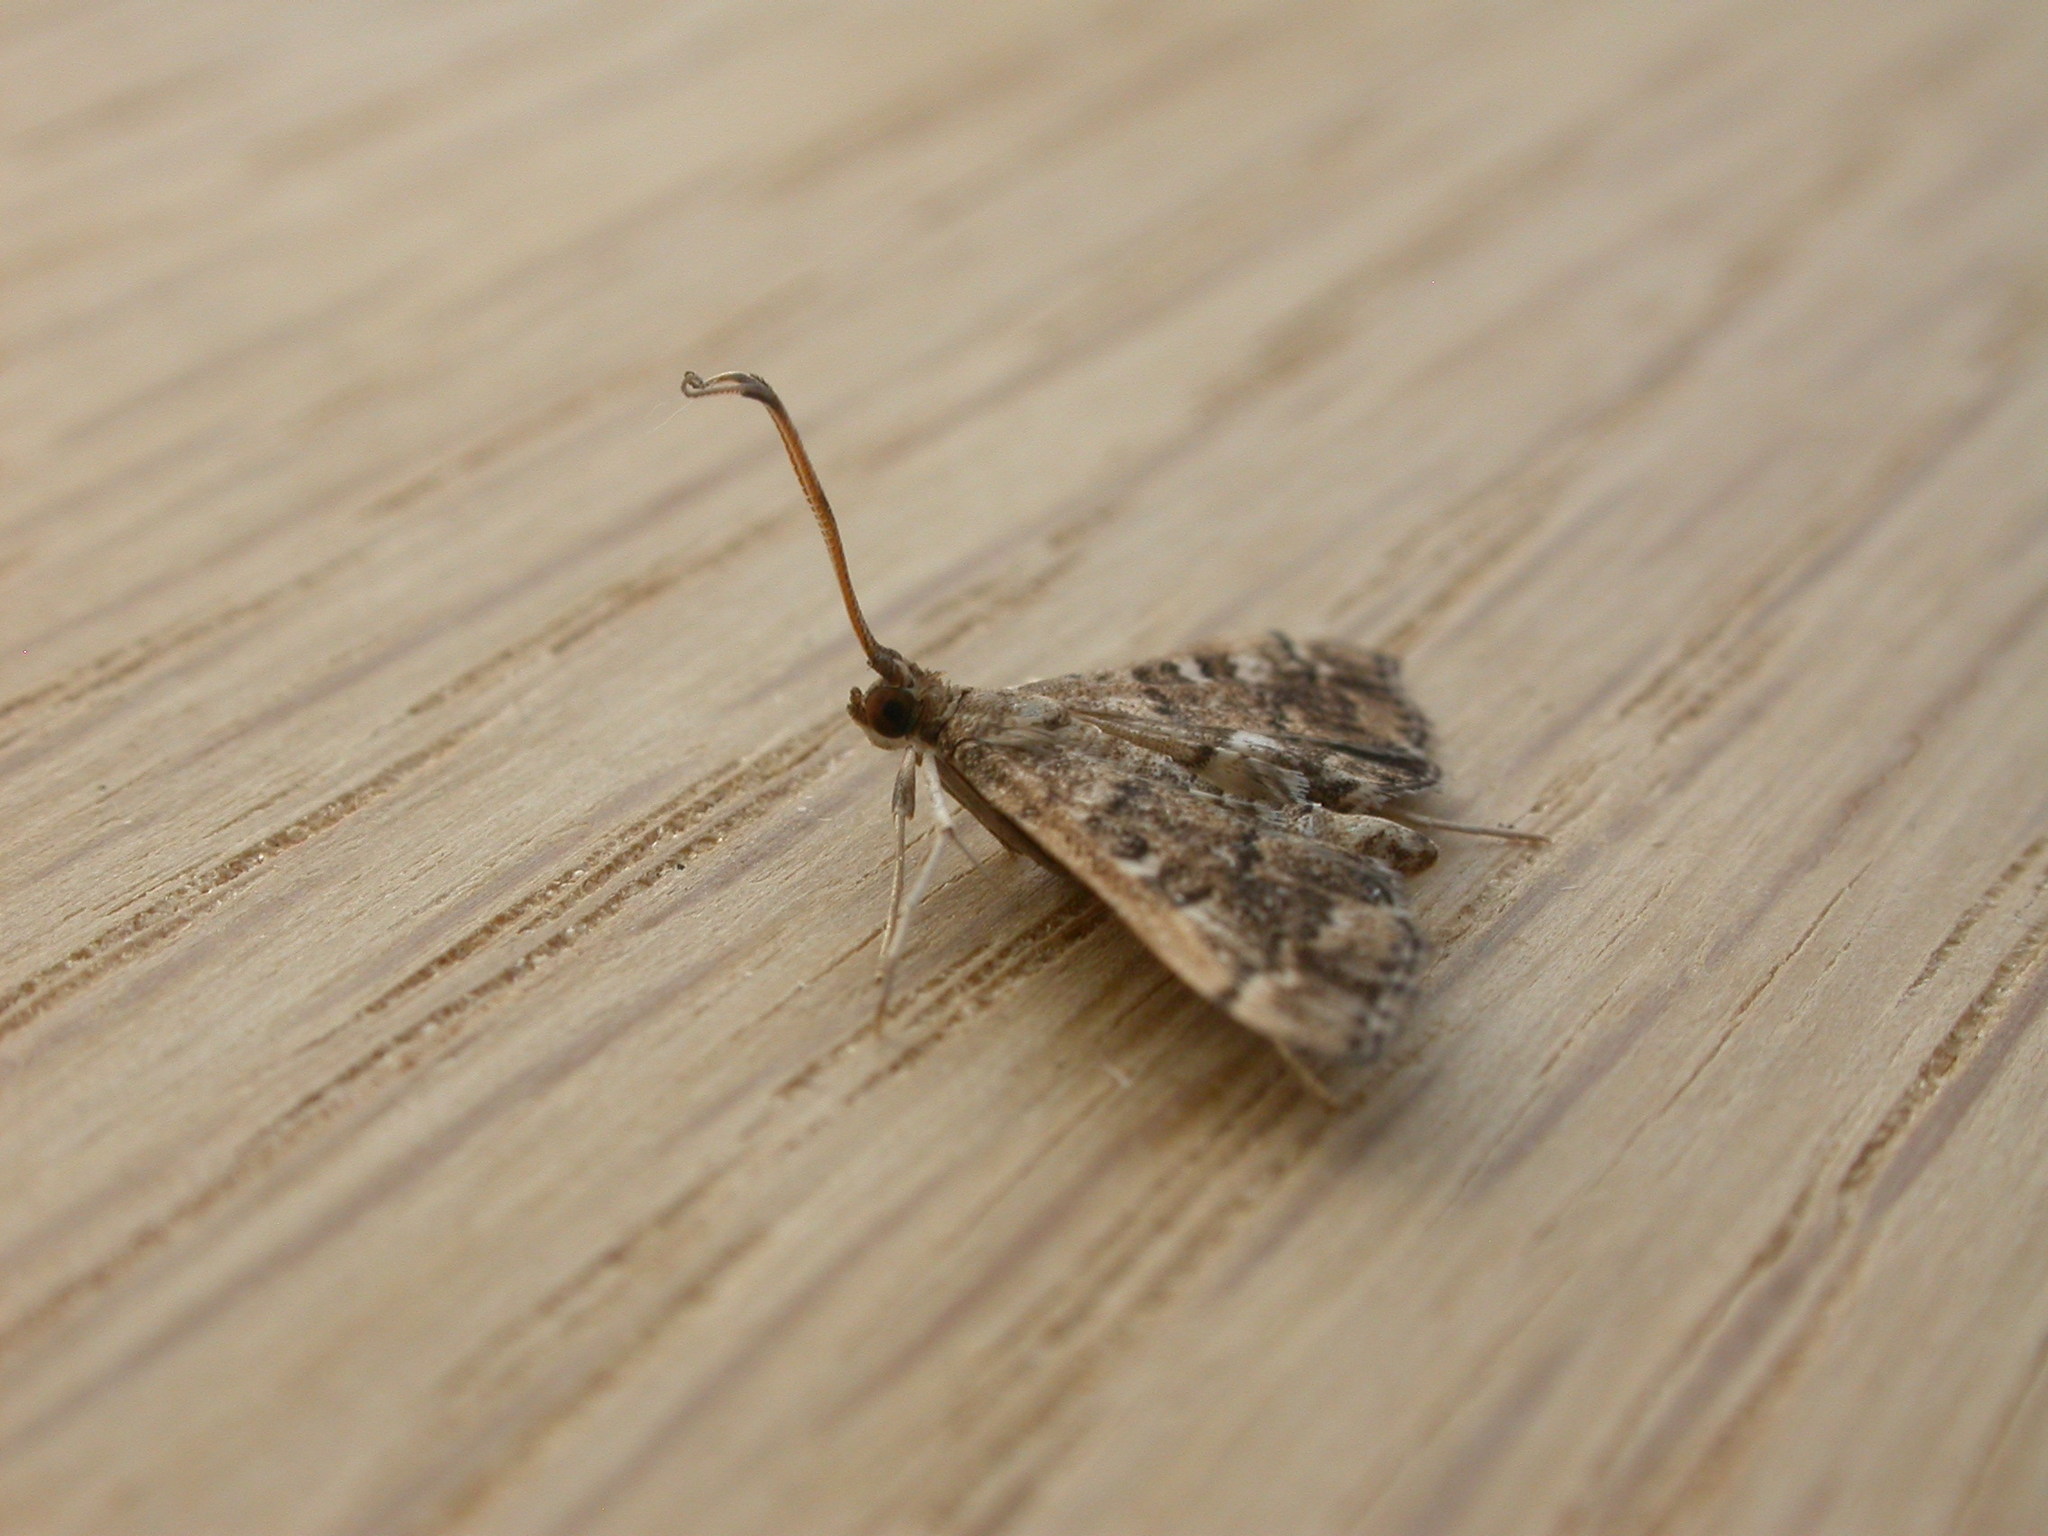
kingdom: Animalia
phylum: Arthropoda
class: Insecta
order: Lepidoptera
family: Crambidae
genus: Nacoleia
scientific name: Nacoleia rhoeoalis
